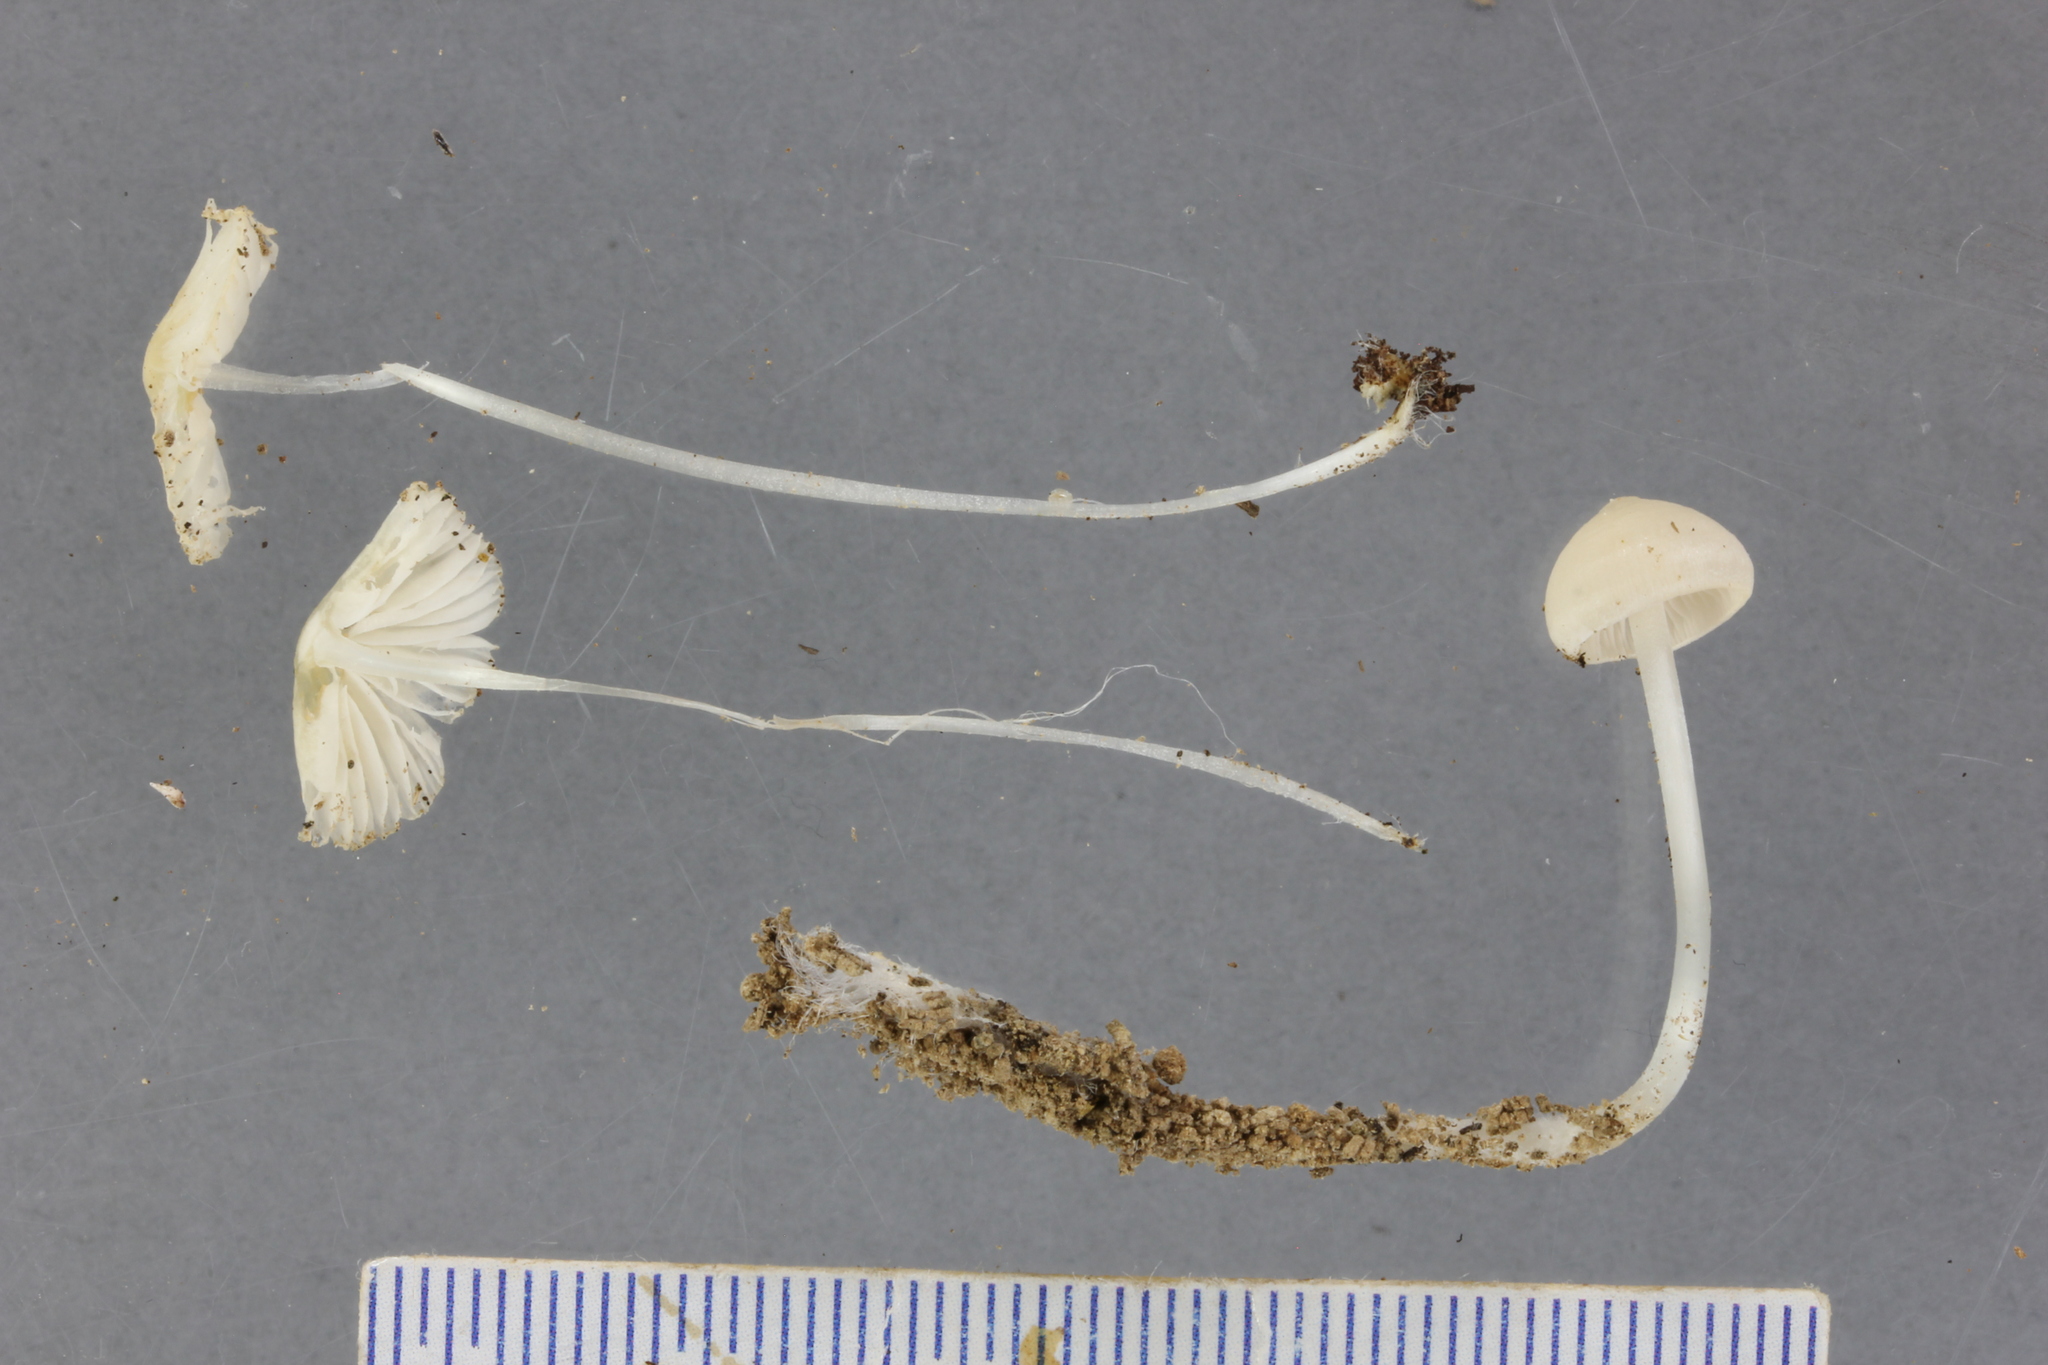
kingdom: Fungi
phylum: Basidiomycota
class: Agaricomycetes
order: Agaricales
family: Porotheleaceae
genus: Phloeomana
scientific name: Phloeomana minutula
